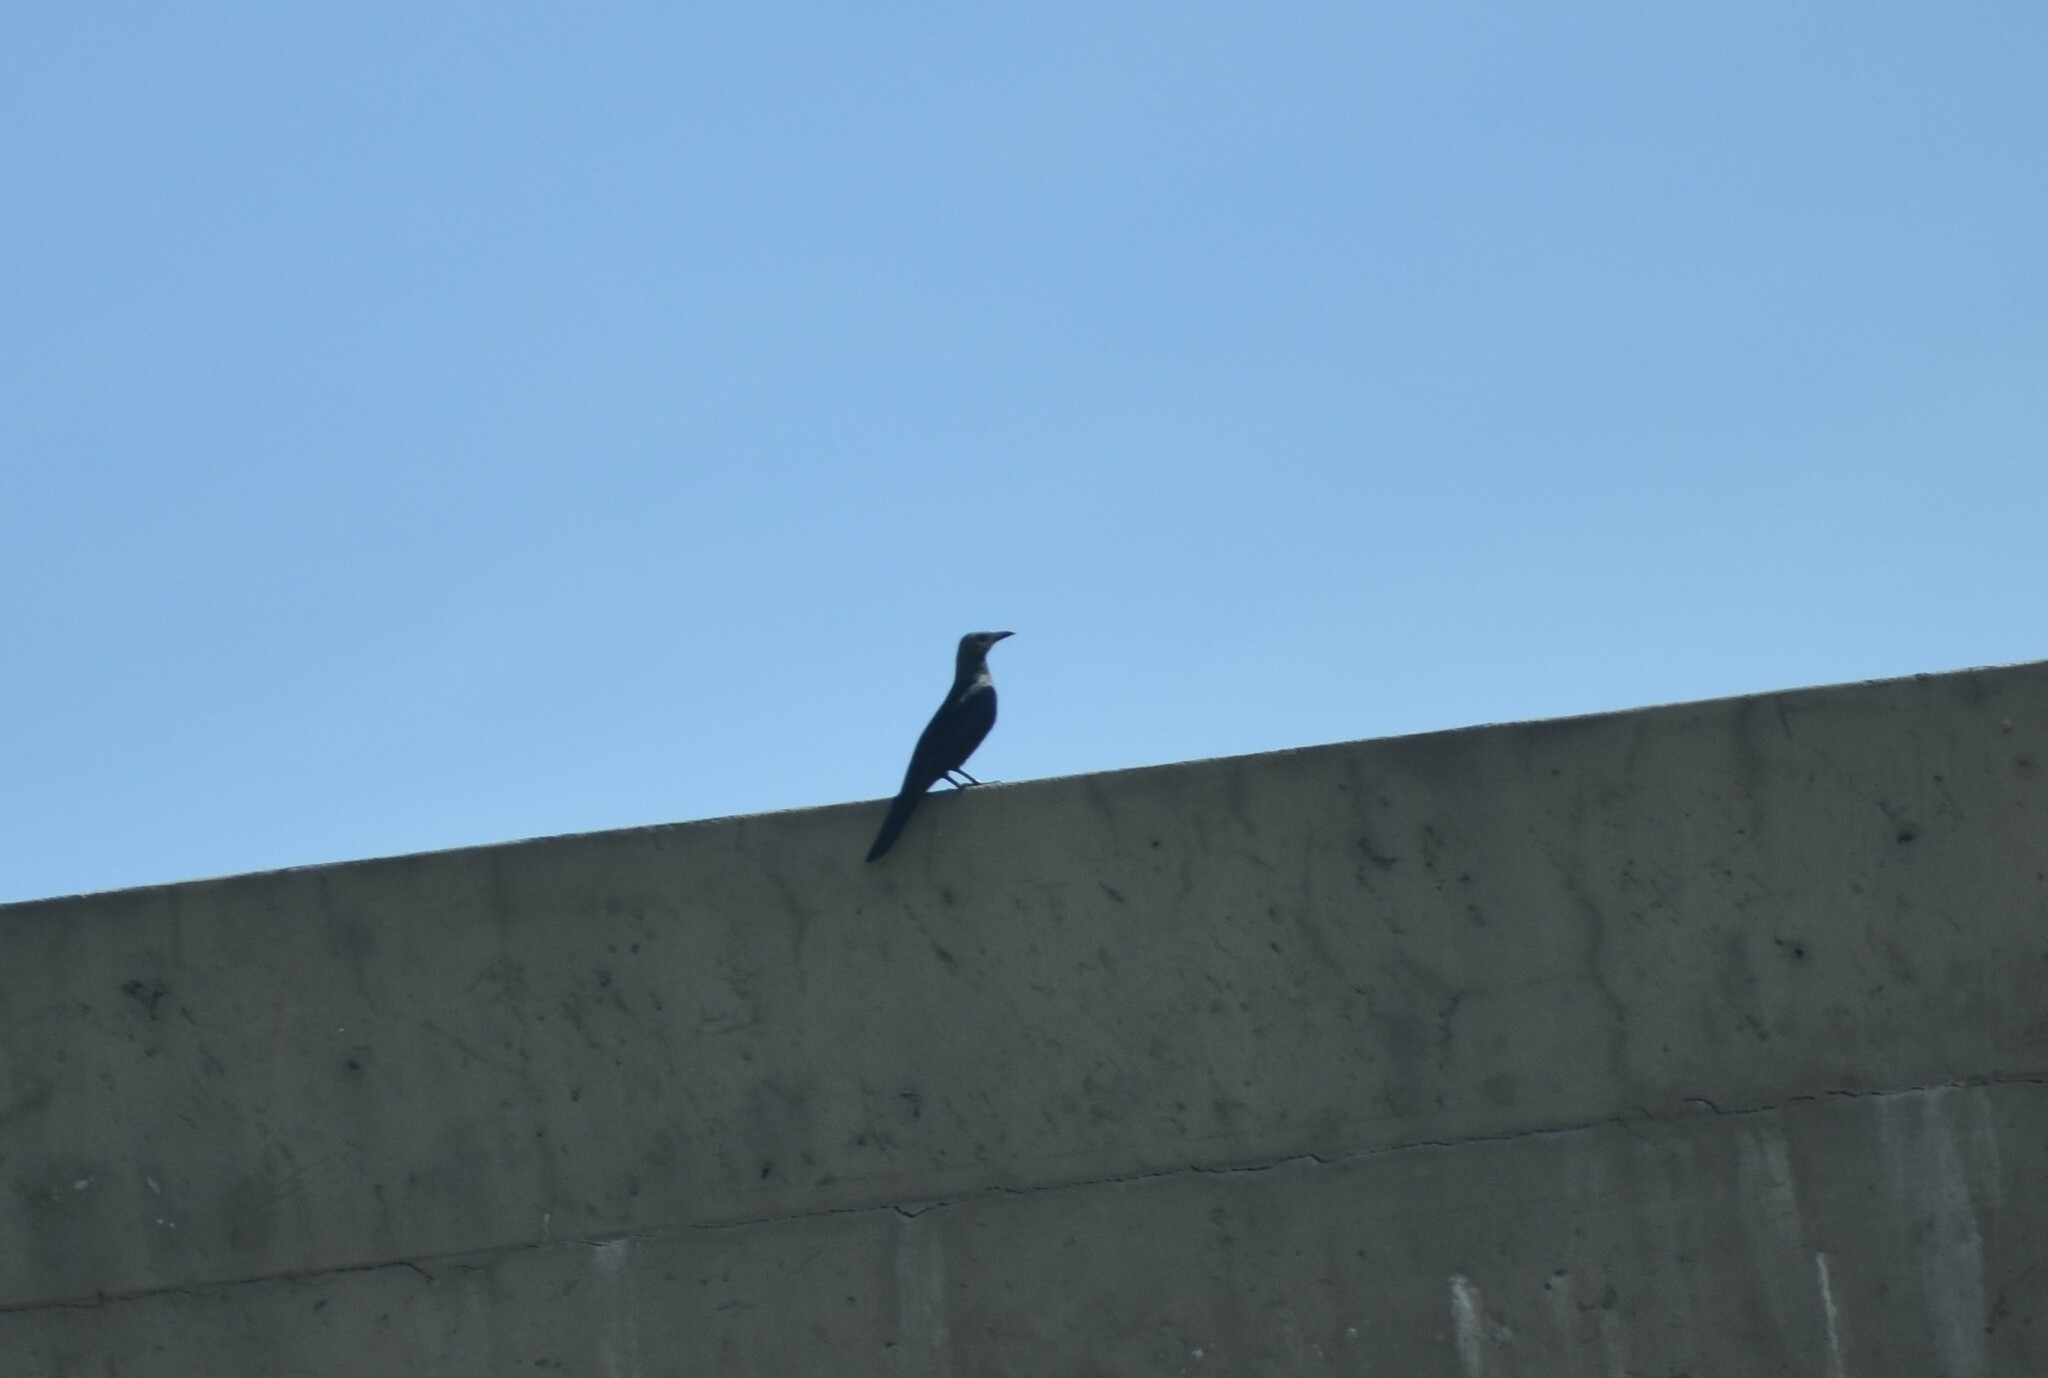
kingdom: Animalia
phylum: Chordata
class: Aves
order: Passeriformes
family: Sturnidae
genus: Onychognathus
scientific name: Onychognathus morio
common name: Red-winged starling
